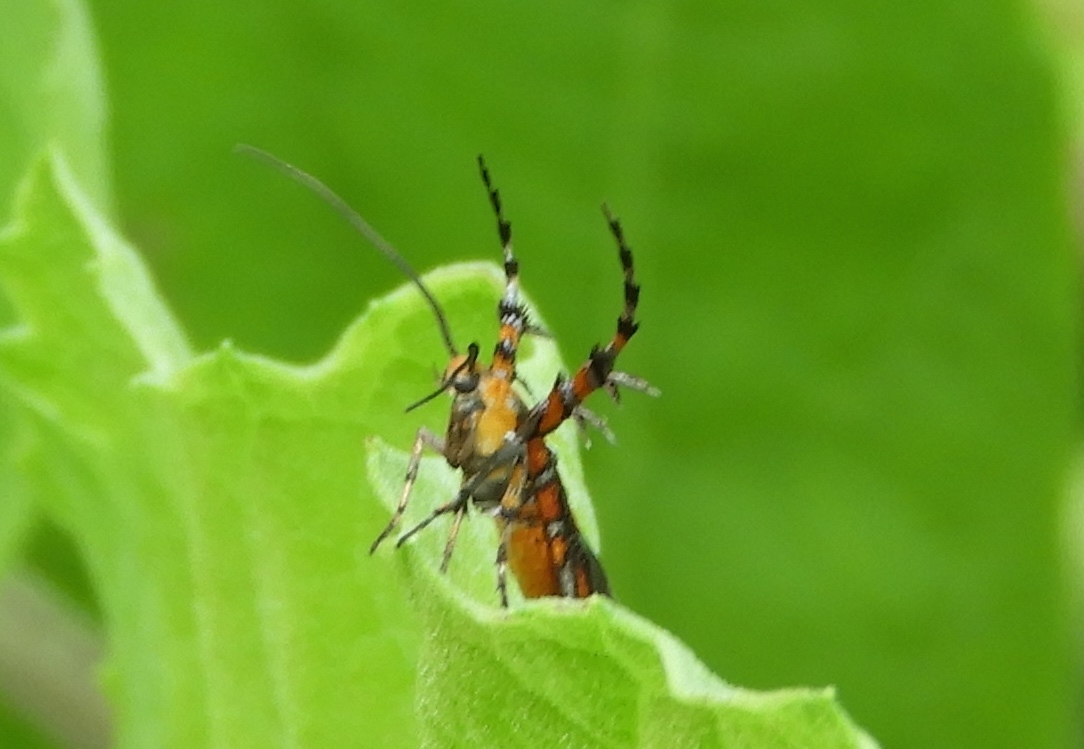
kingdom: Animalia
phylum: Arthropoda
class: Insecta
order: Lepidoptera
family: Heliodinidae
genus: Heliodines
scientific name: Heliodines
